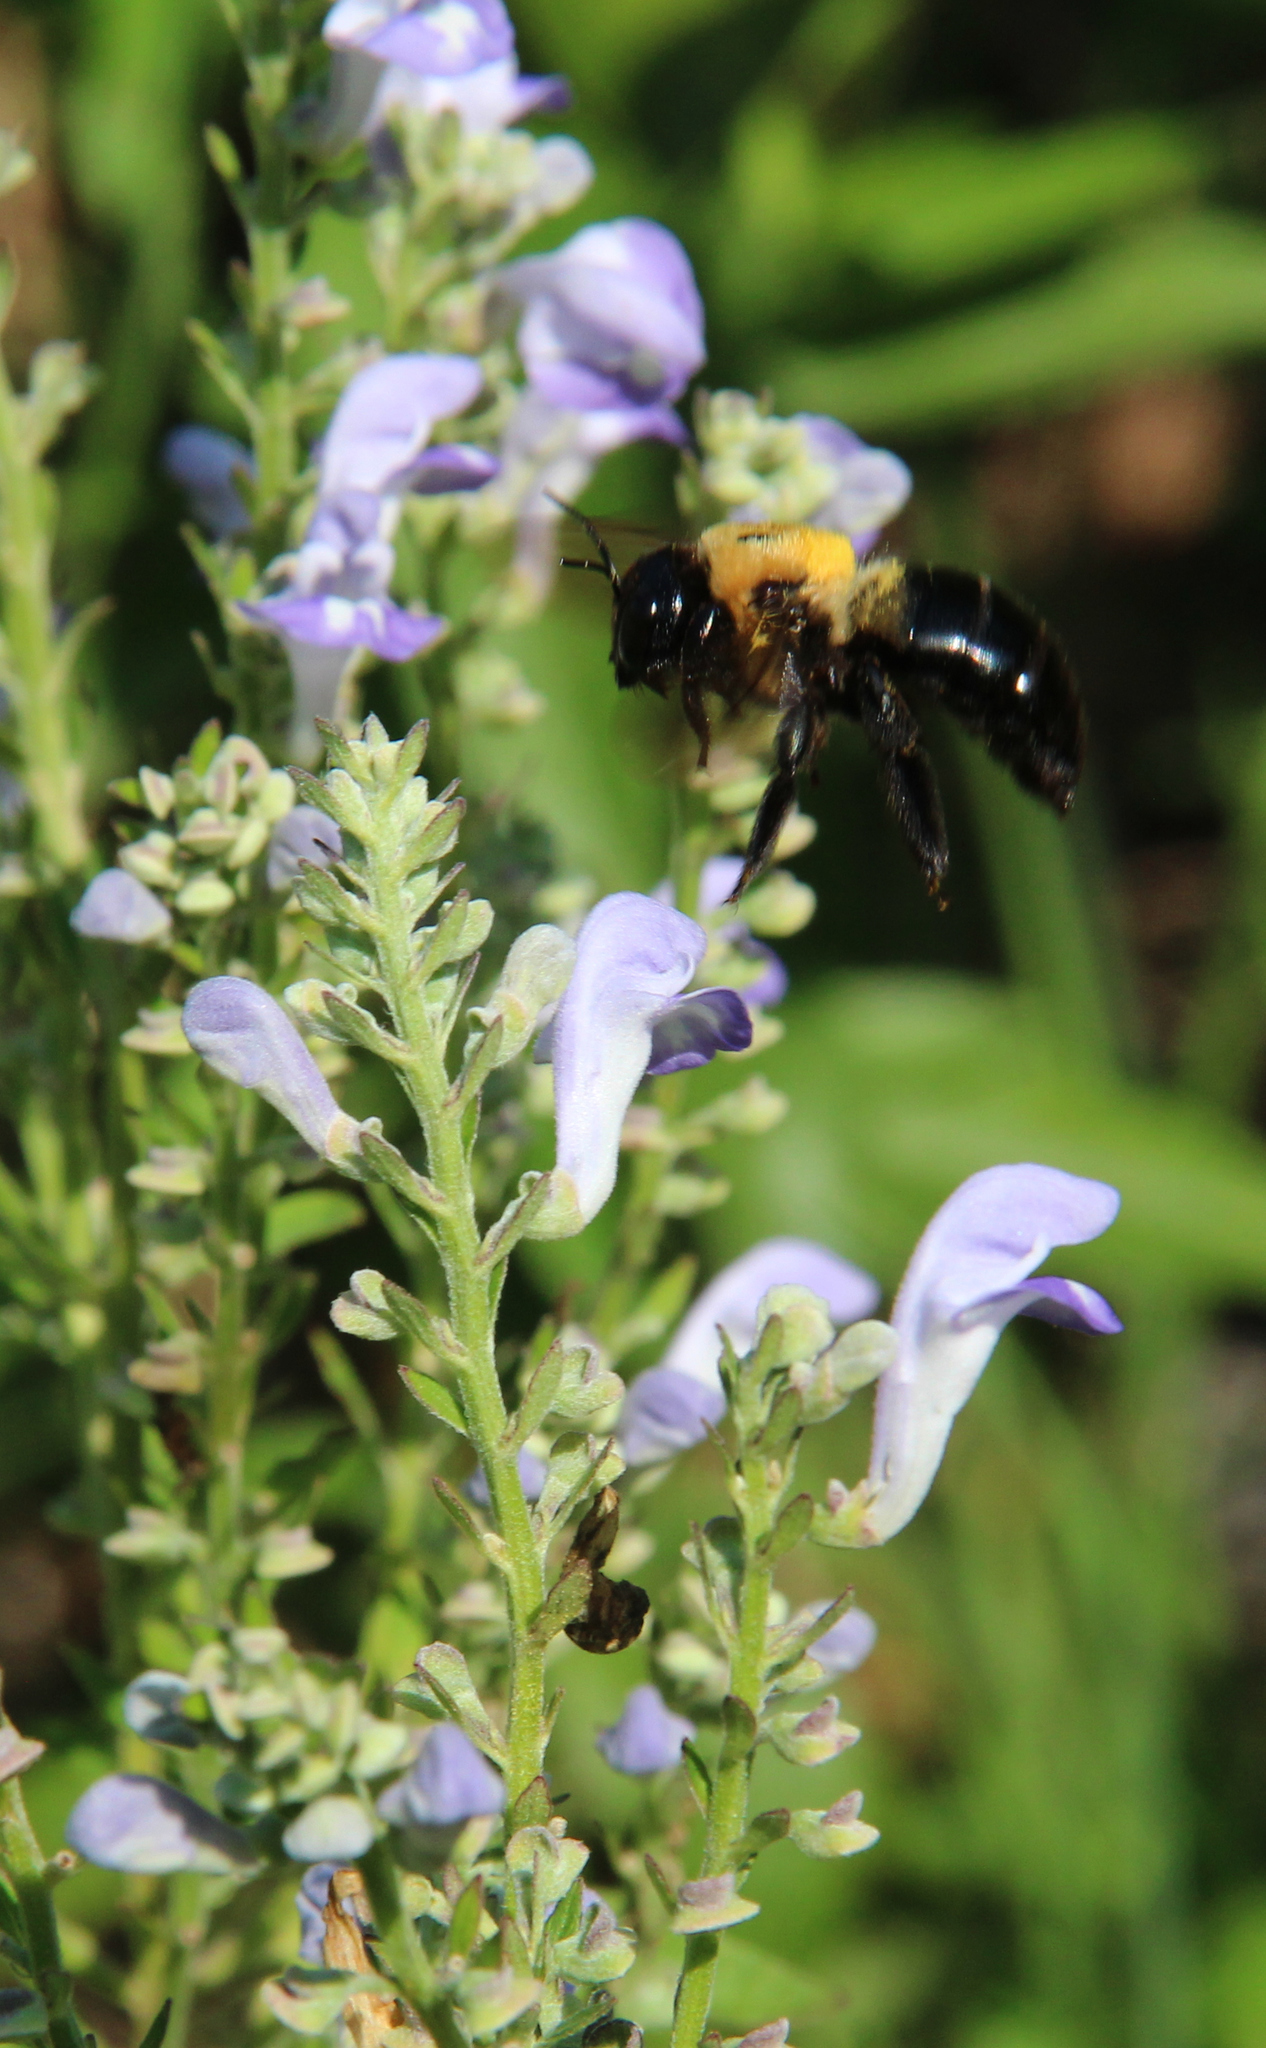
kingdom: Animalia
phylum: Arthropoda
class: Insecta
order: Hymenoptera
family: Apidae
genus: Xylocopa
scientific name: Xylocopa virginica
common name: Carpenter bee
